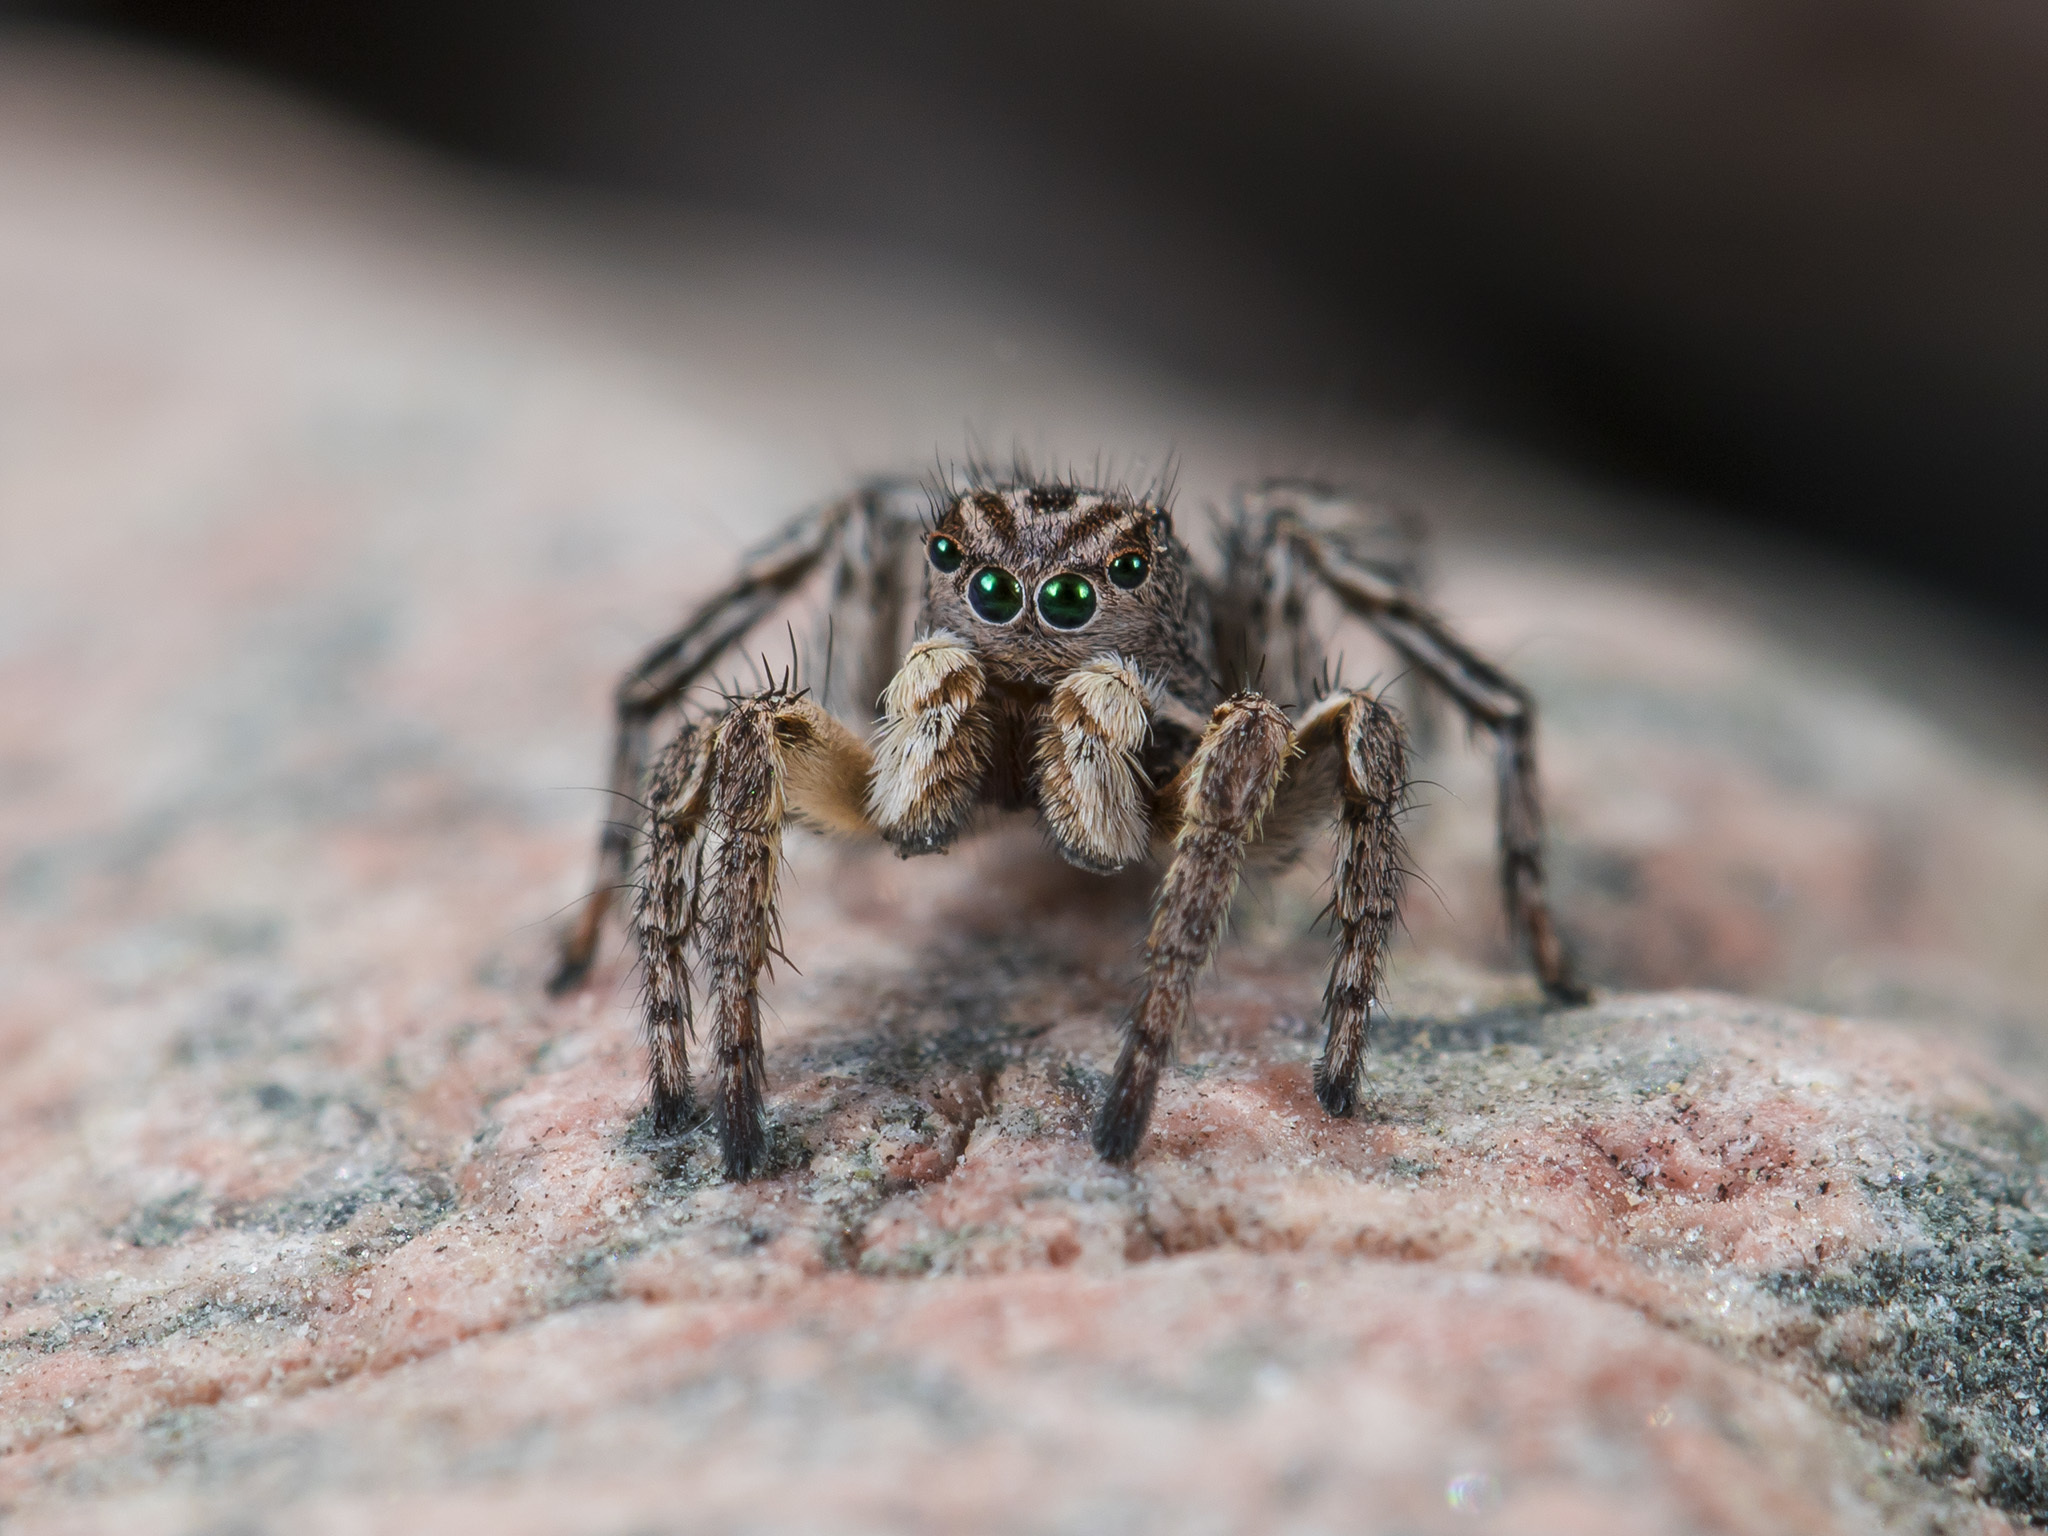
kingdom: Animalia
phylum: Arthropoda
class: Arachnida
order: Araneae
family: Salticidae
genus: Aelurillus
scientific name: Aelurillus v-insignitus
